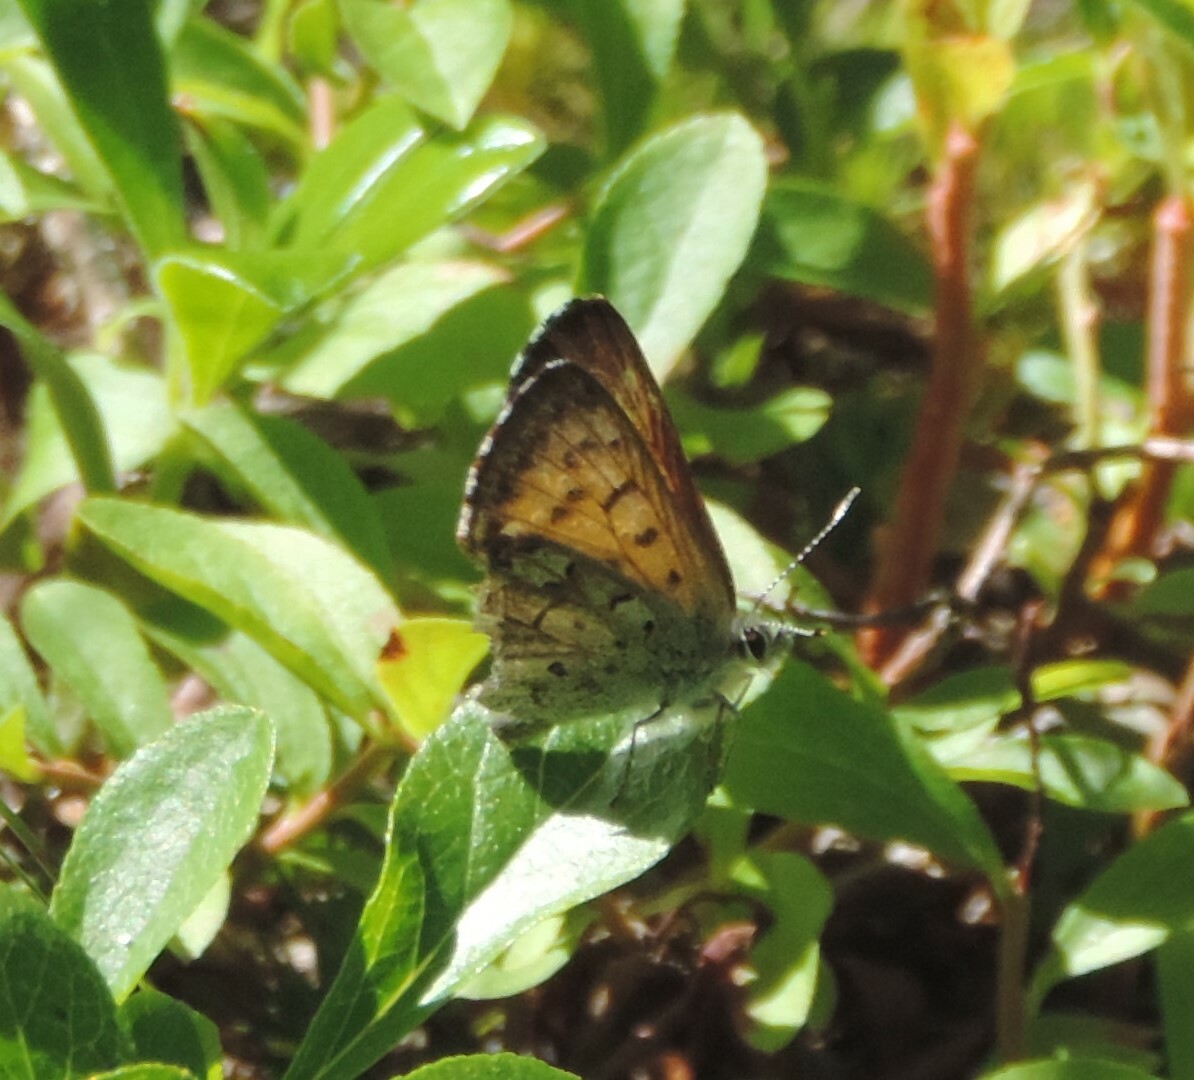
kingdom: Animalia
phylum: Arthropoda
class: Insecta
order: Lepidoptera
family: Lycaenidae
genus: Tharsalea
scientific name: Tharsalea mariposa
